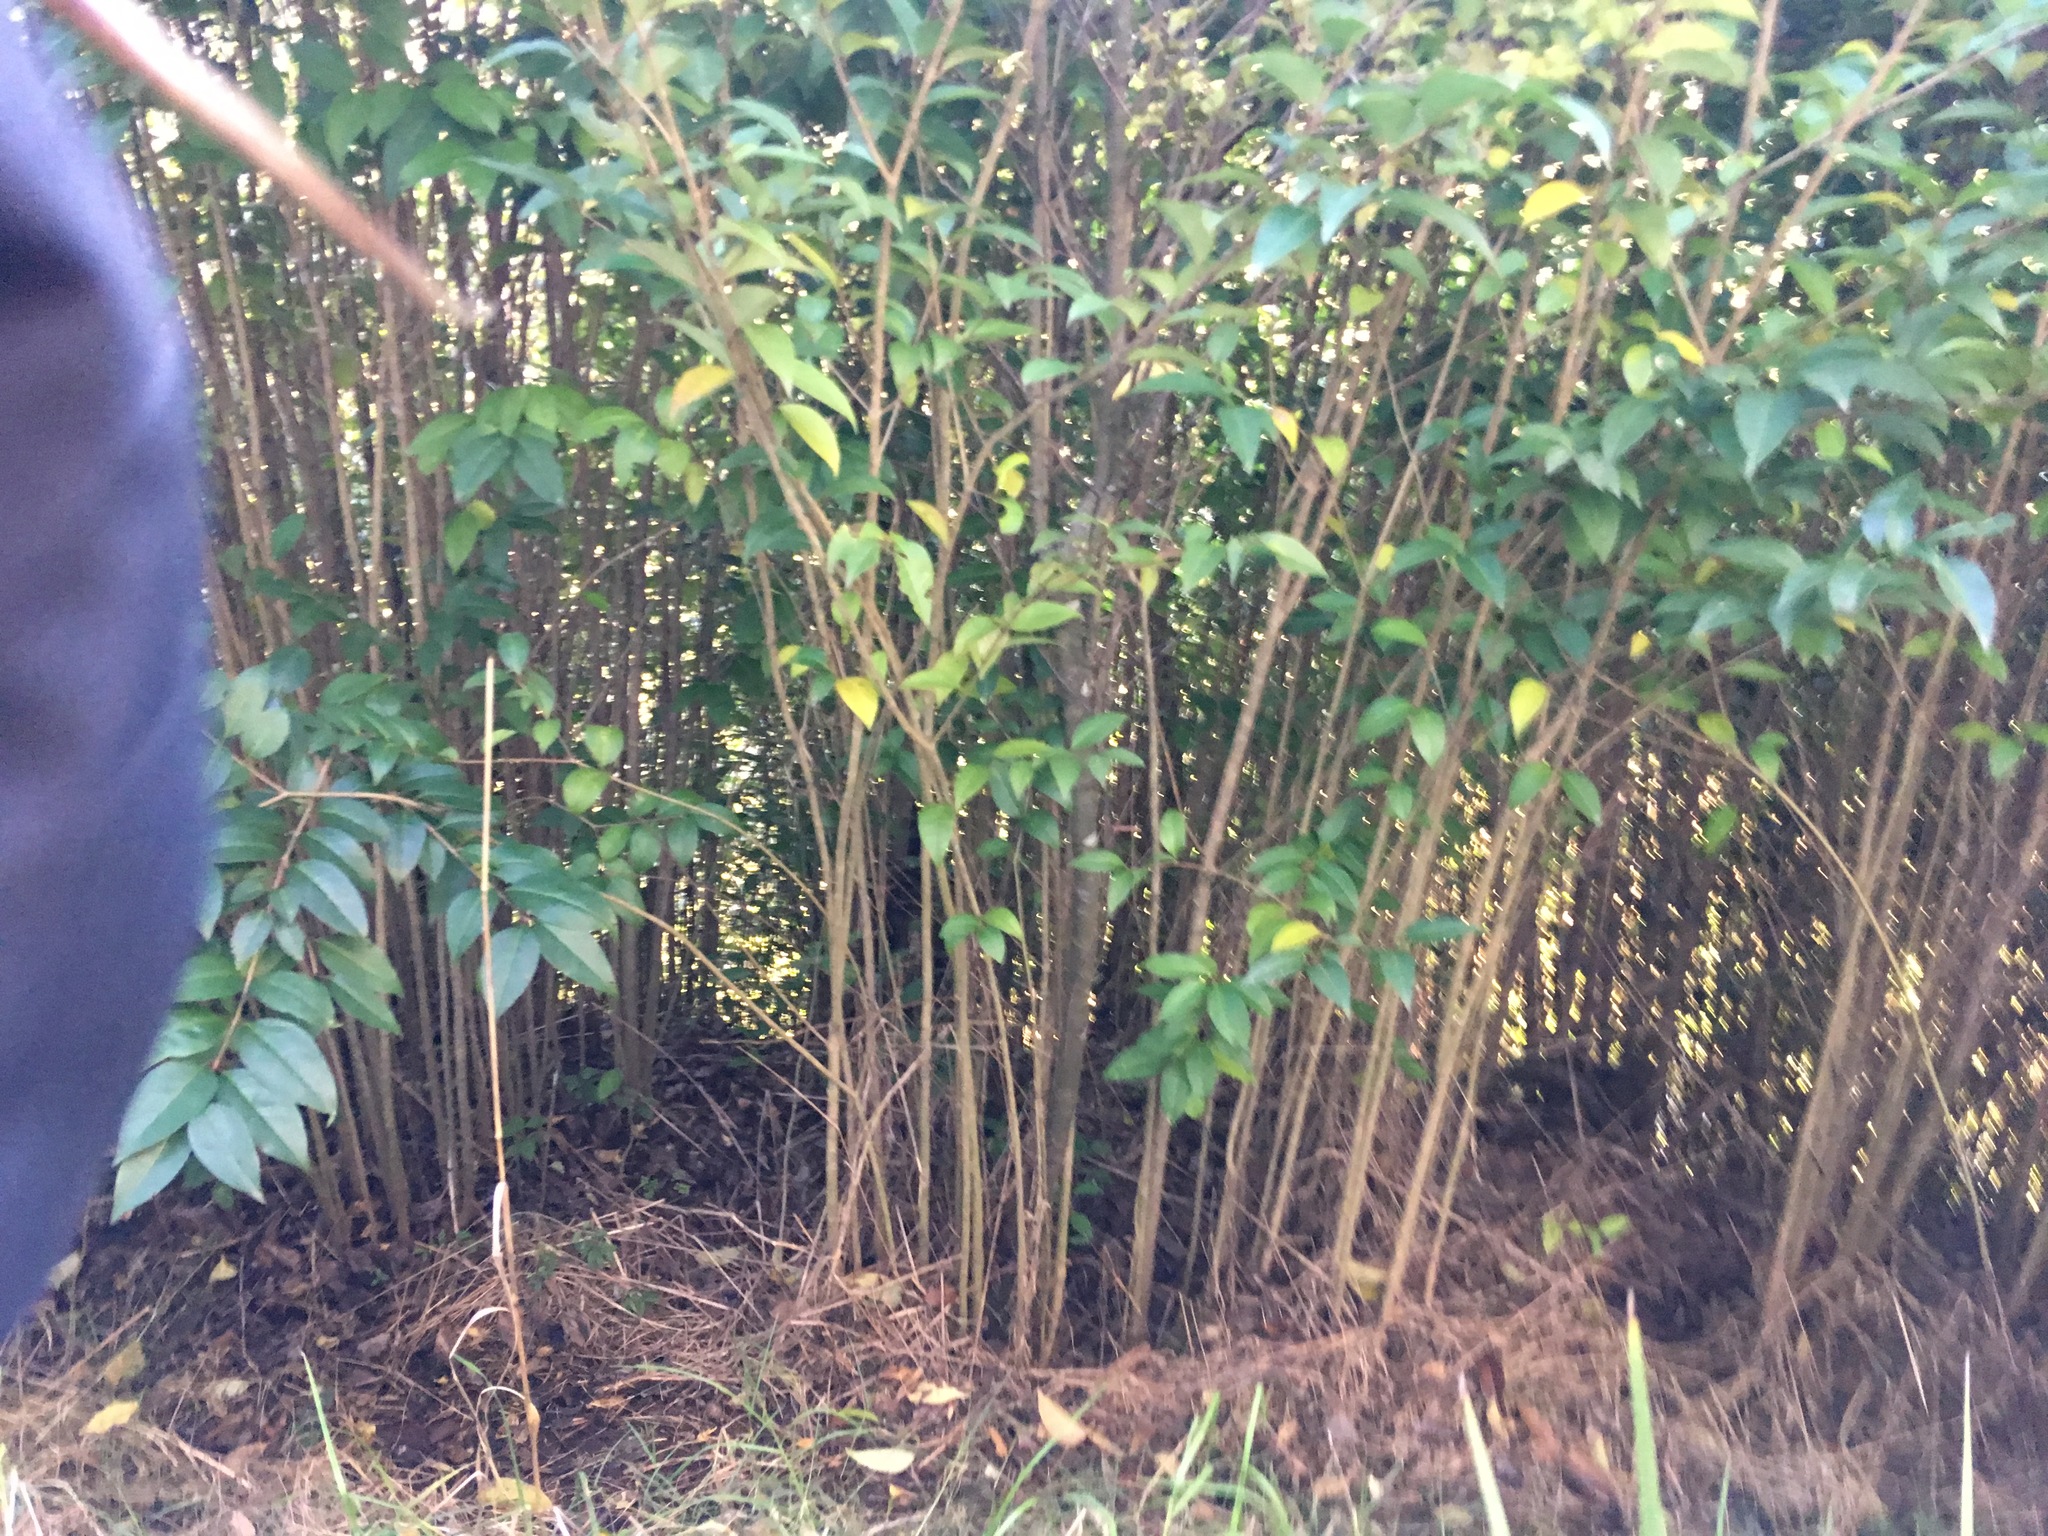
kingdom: Plantae
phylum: Tracheophyta
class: Magnoliopsida
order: Lamiales
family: Oleaceae
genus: Ligustrum
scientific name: Ligustrum lucidum
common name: Glossy privet
